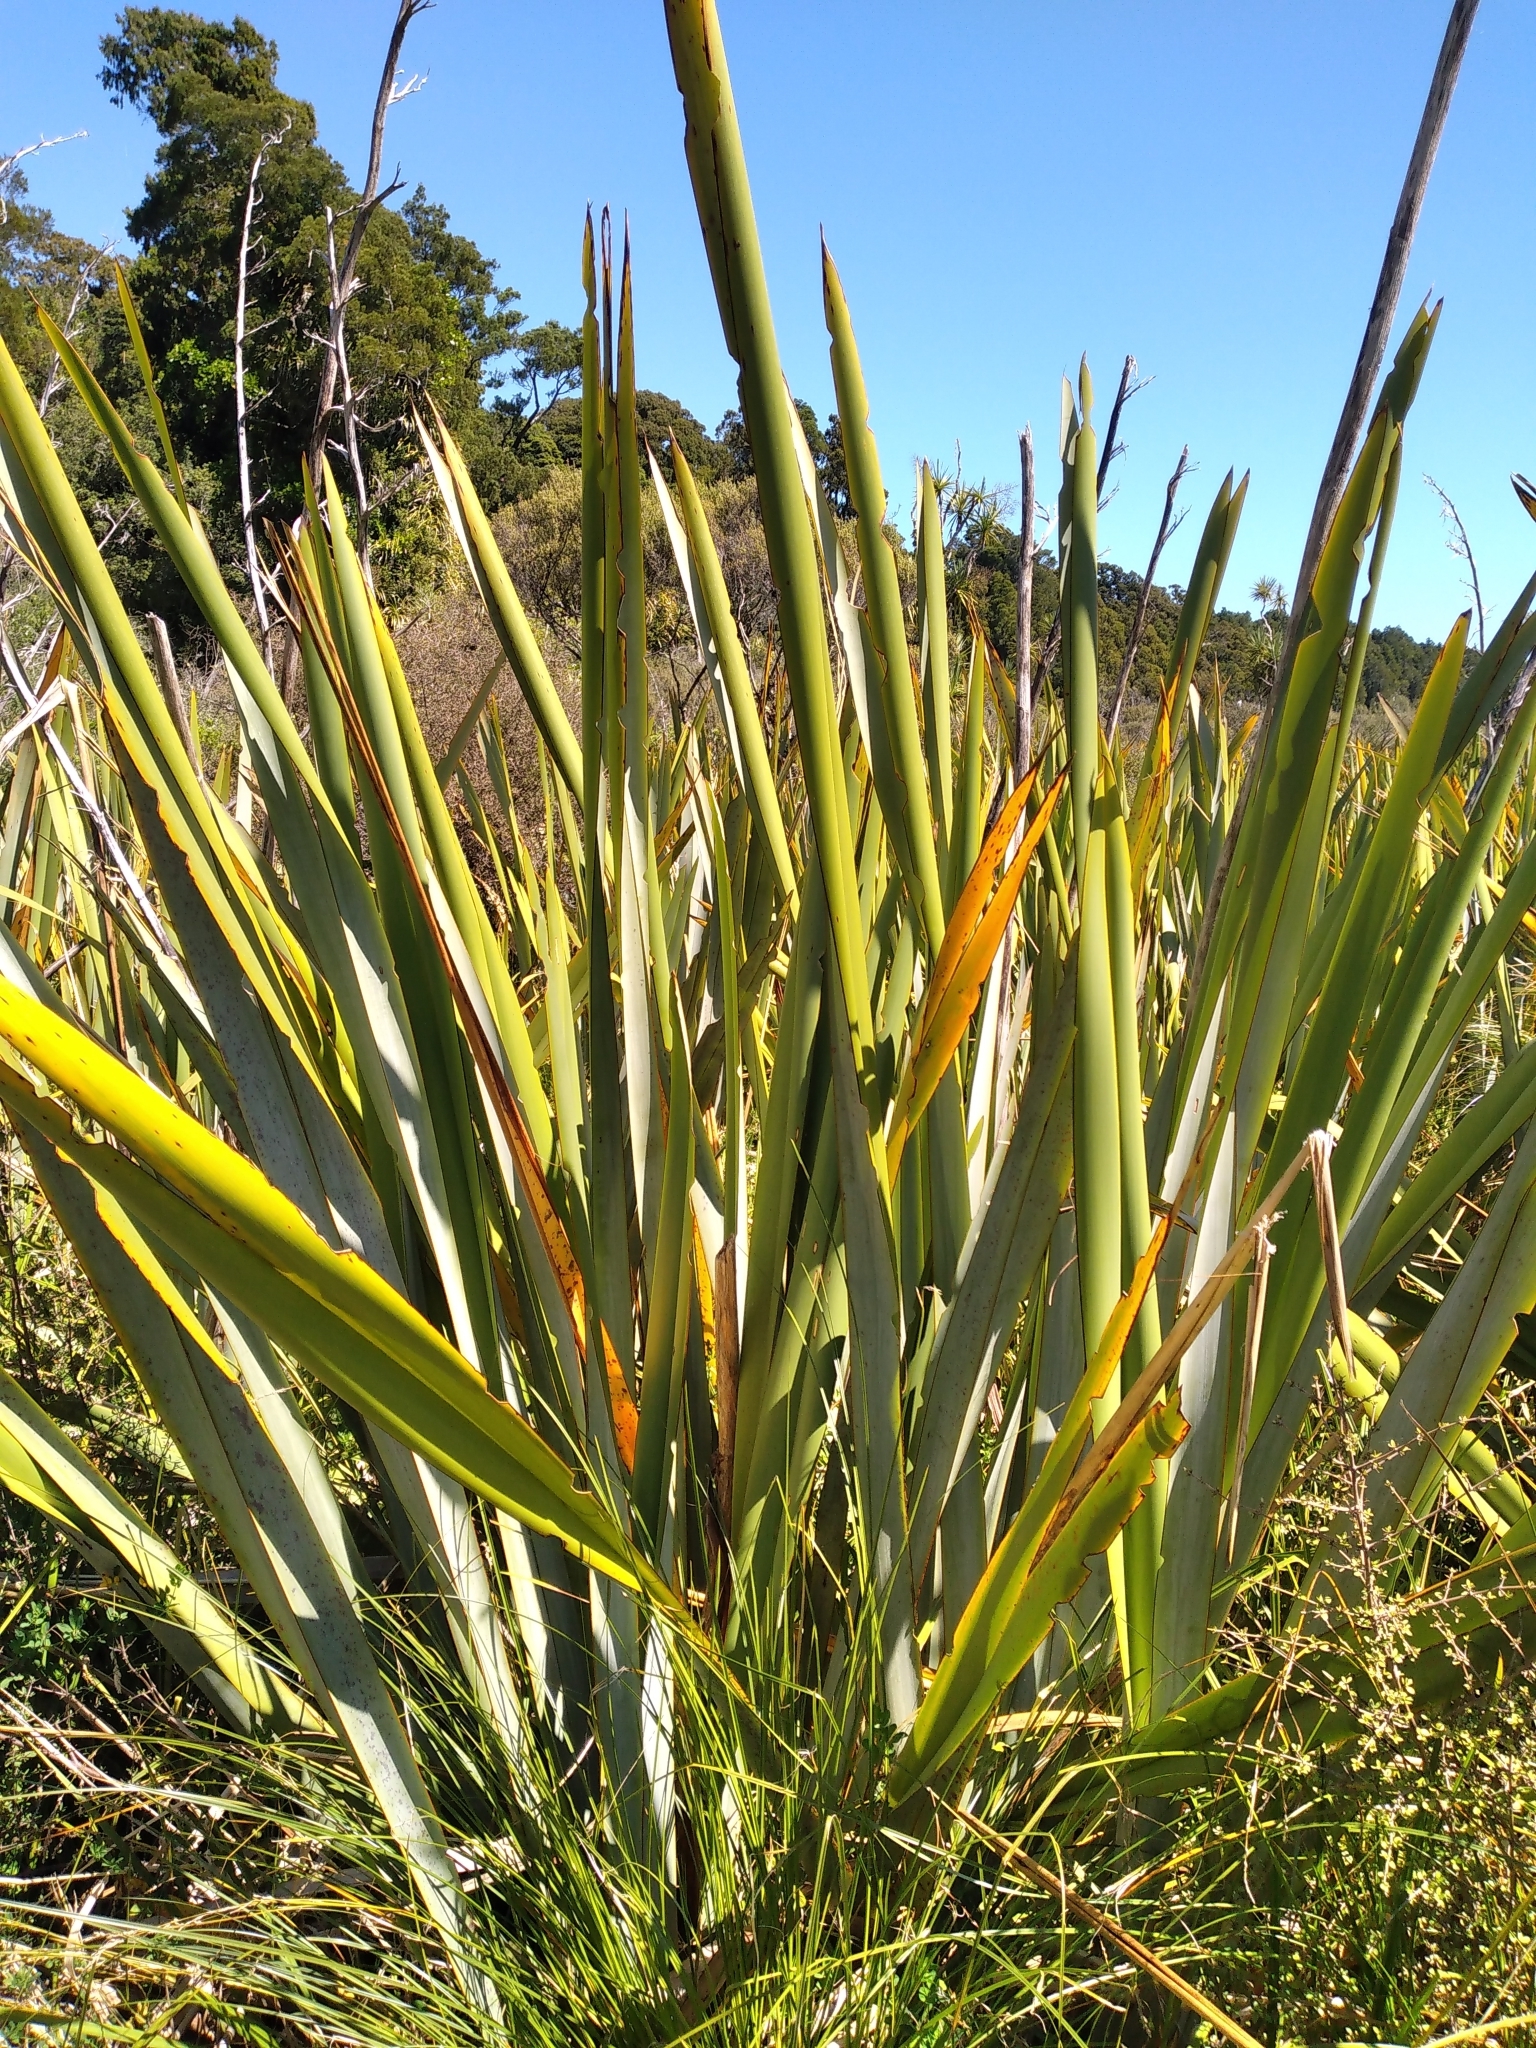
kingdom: Plantae
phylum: Tracheophyta
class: Liliopsida
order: Asparagales
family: Asphodelaceae
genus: Phormium
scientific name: Phormium tenax
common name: New zealand flax
